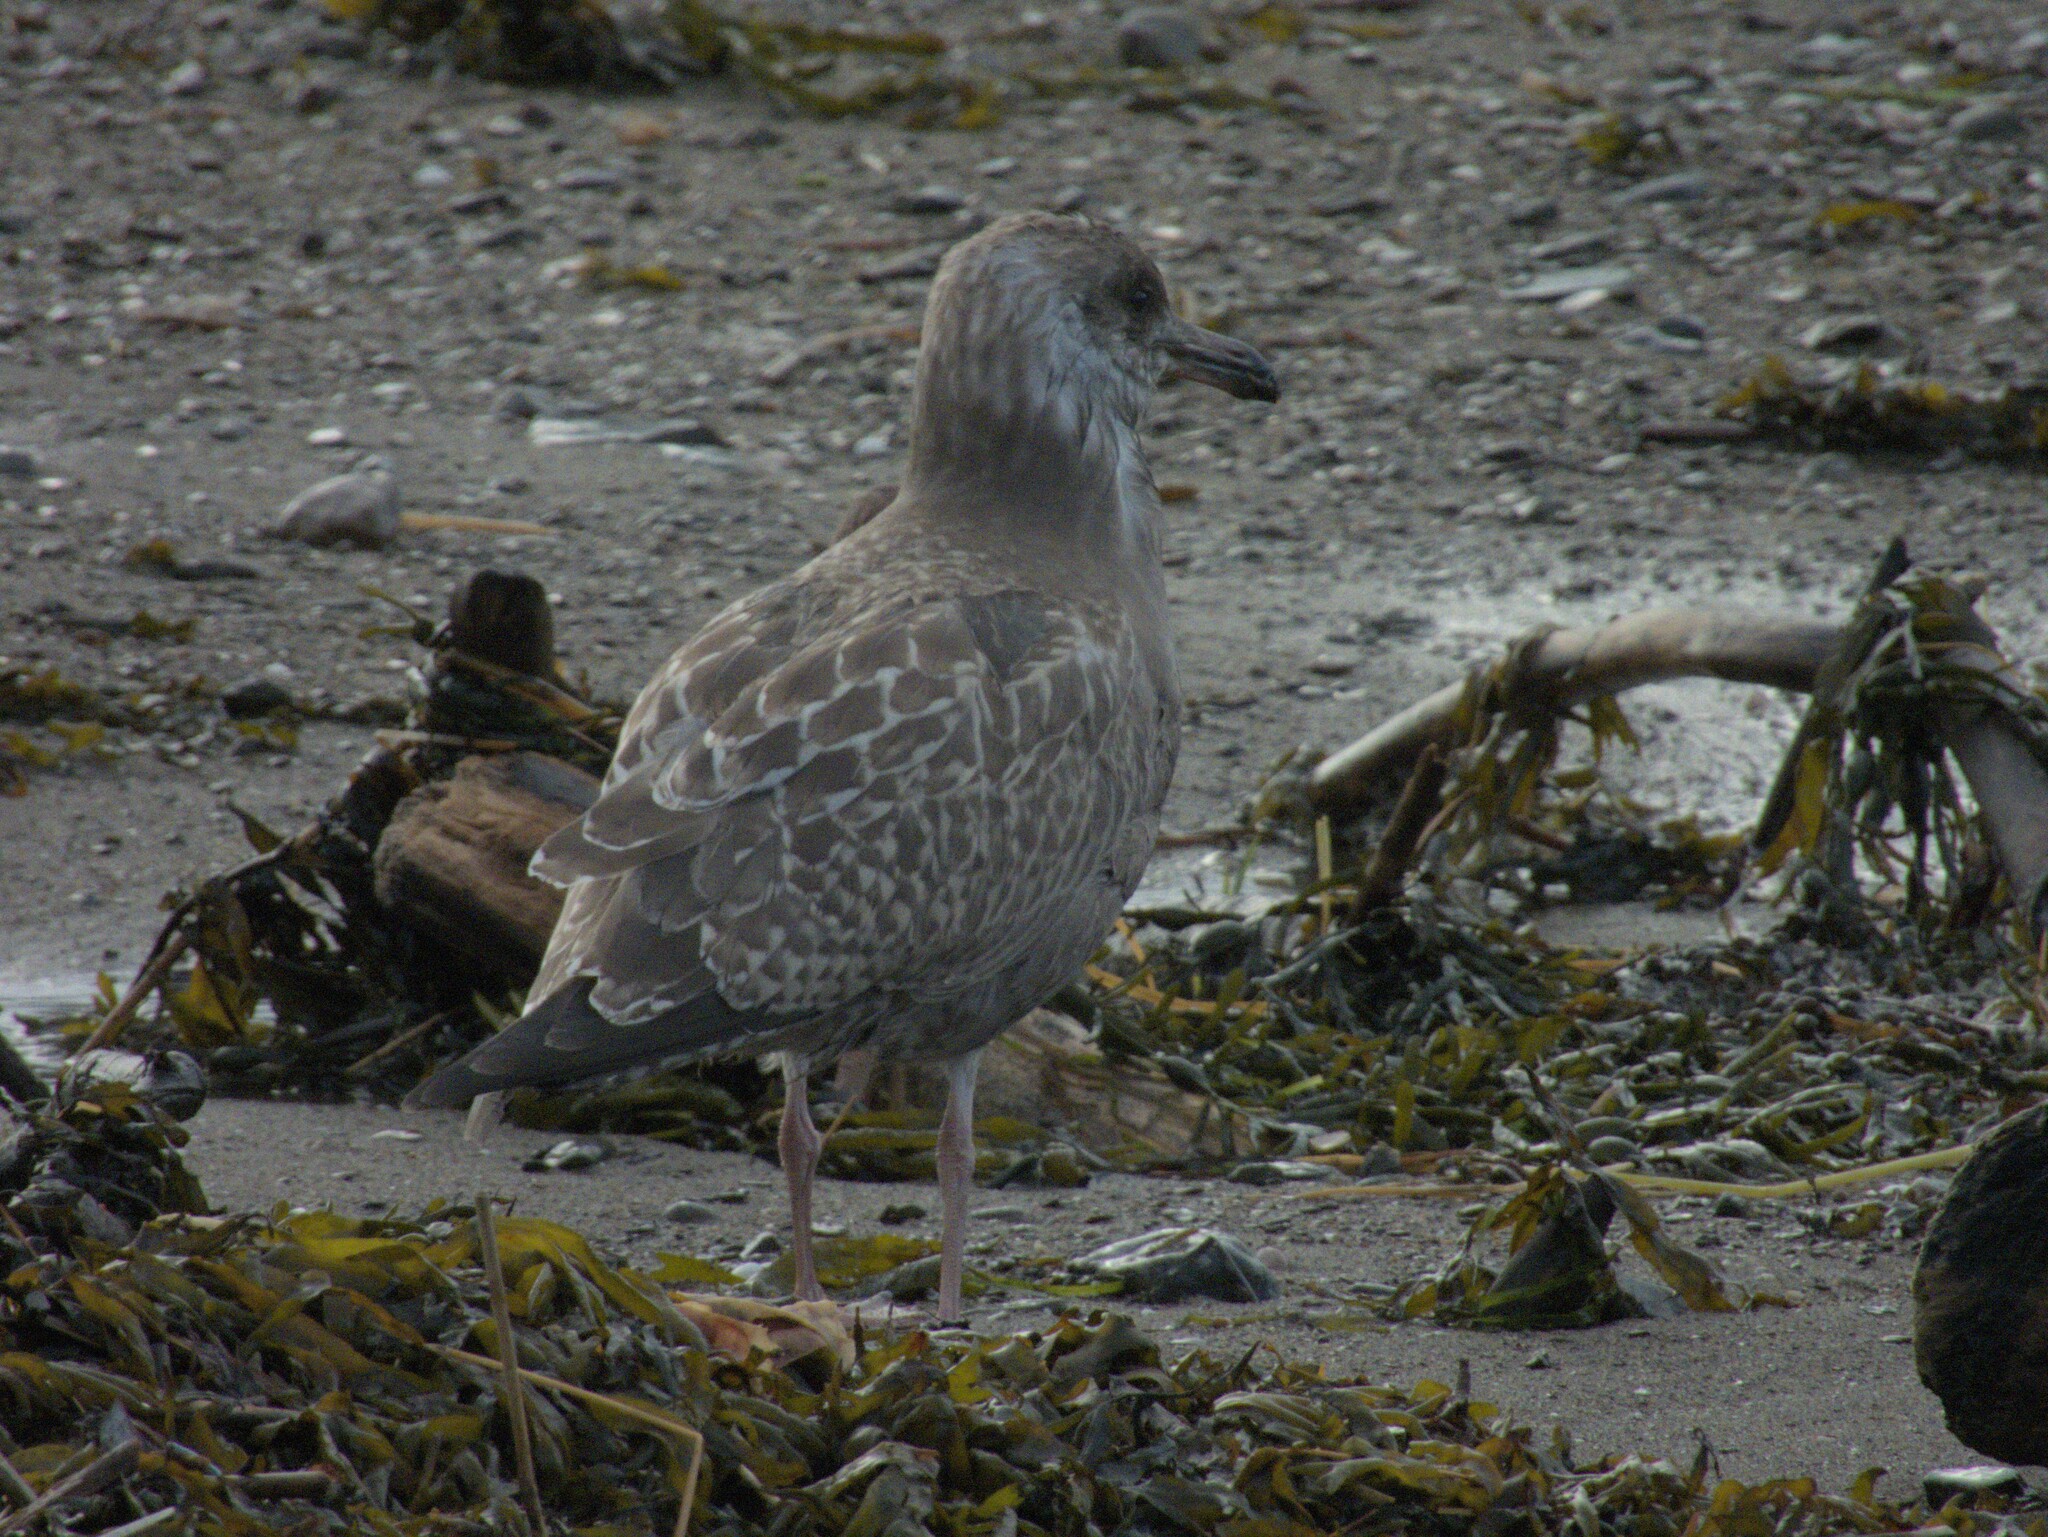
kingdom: Animalia
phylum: Chordata
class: Aves
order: Charadriiformes
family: Laridae
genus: Larus
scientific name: Larus argentatus
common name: Herring gull
